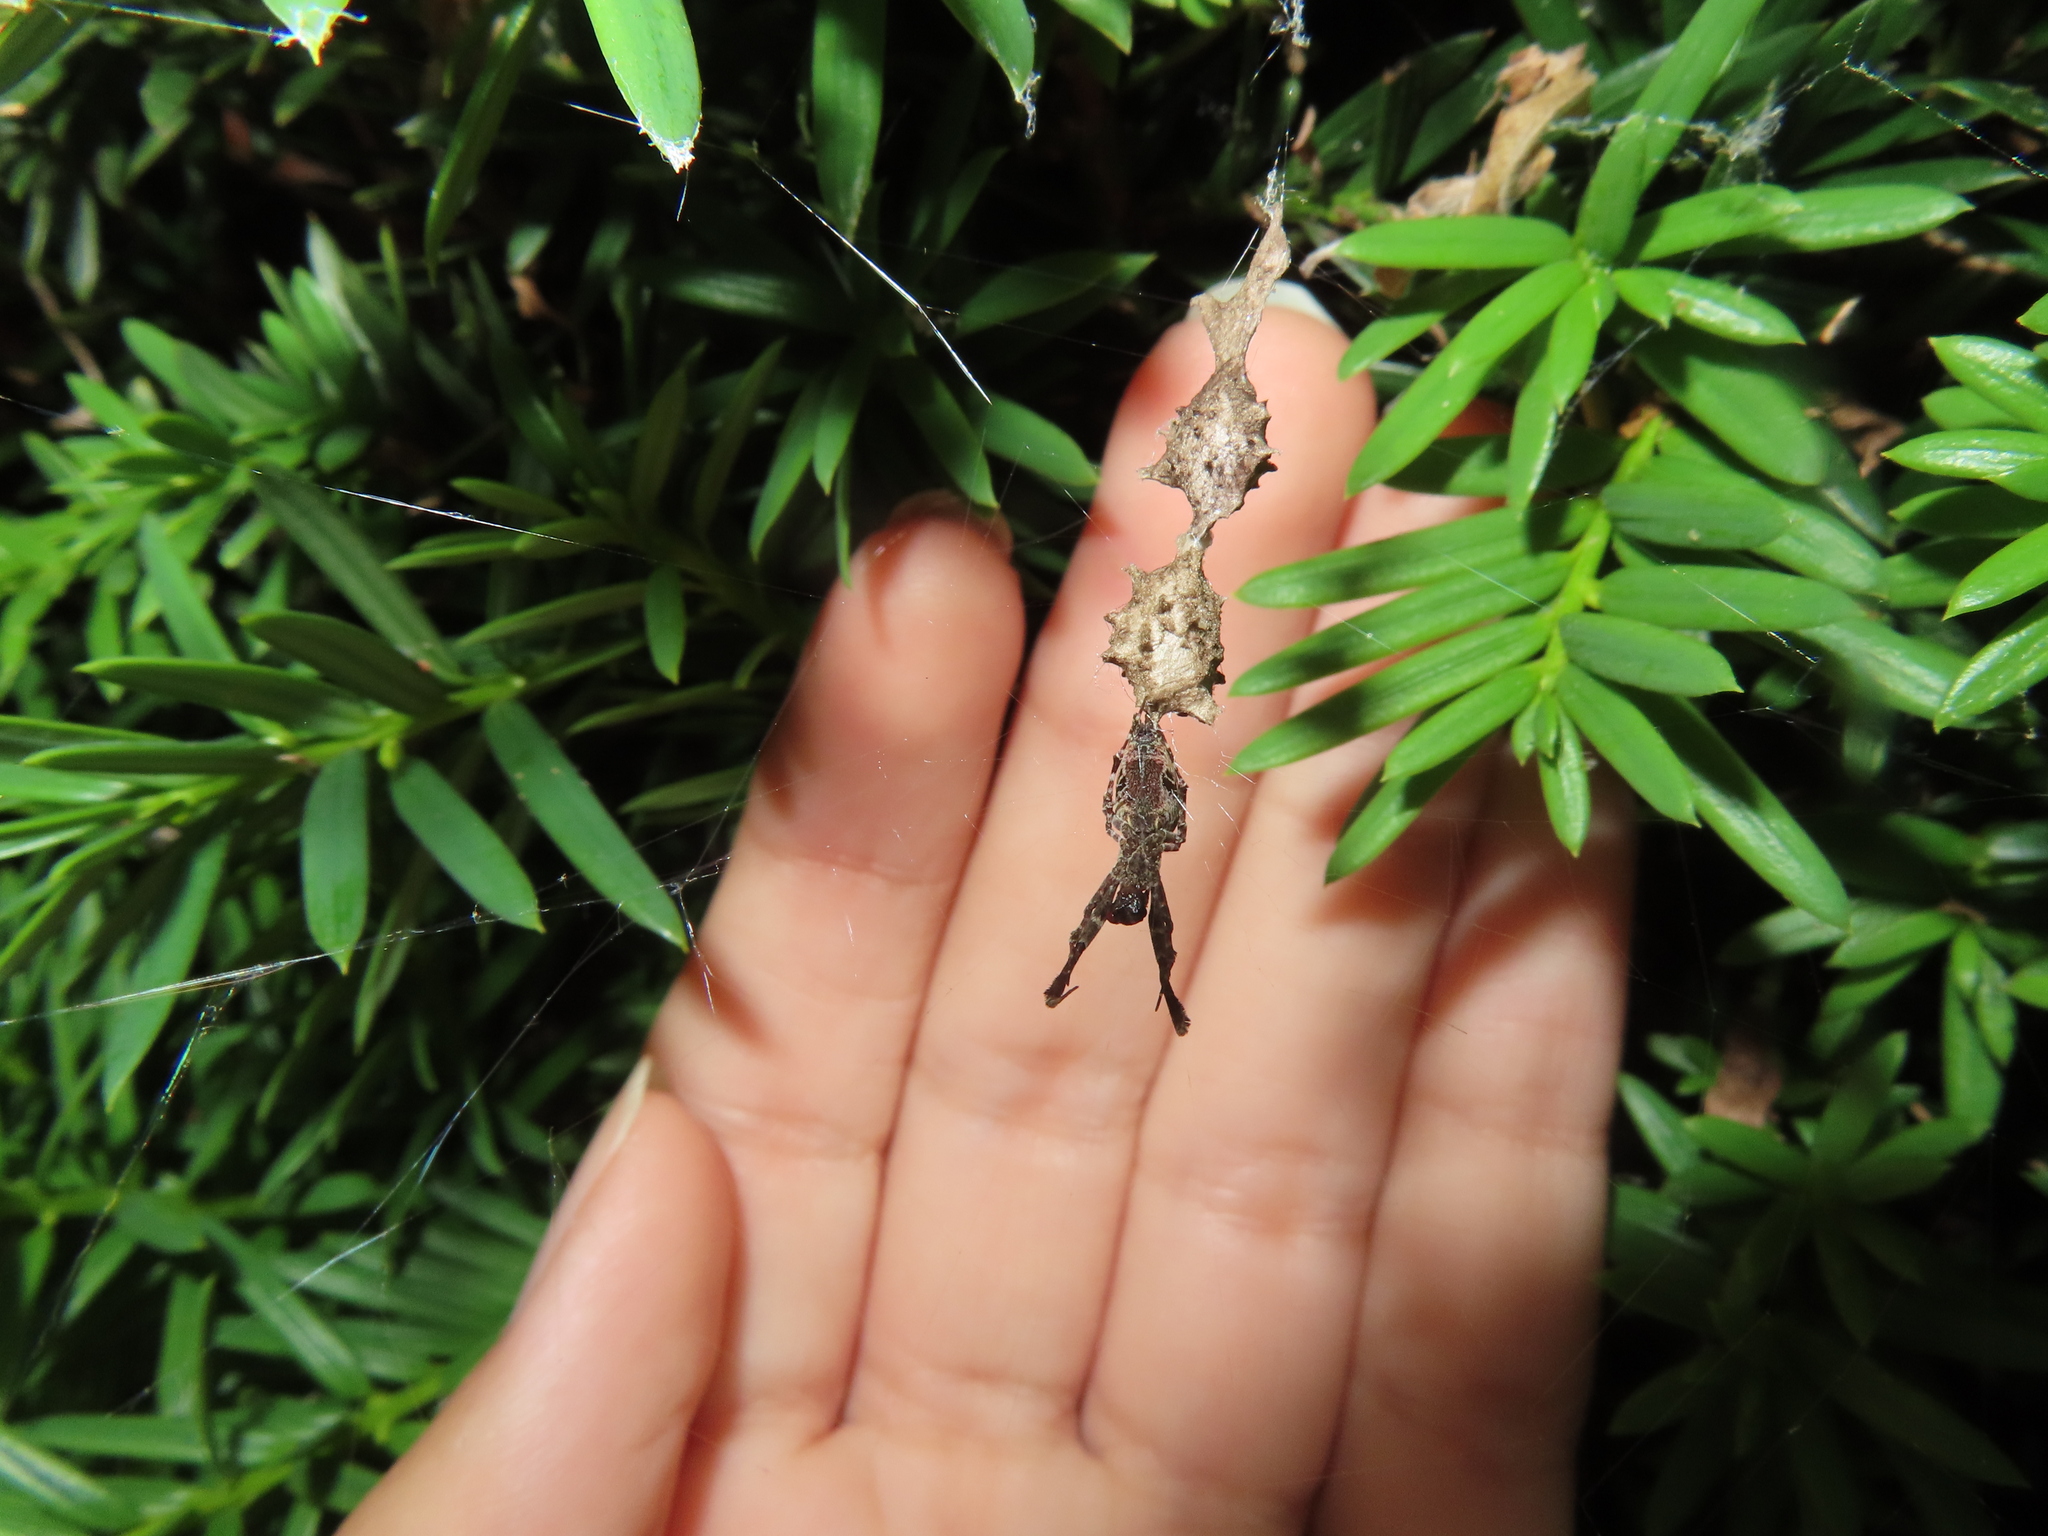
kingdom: Animalia
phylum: Arthropoda
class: Arachnida
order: Araneae
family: Uloboridae
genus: Uloborus
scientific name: Uloborus glomosus
